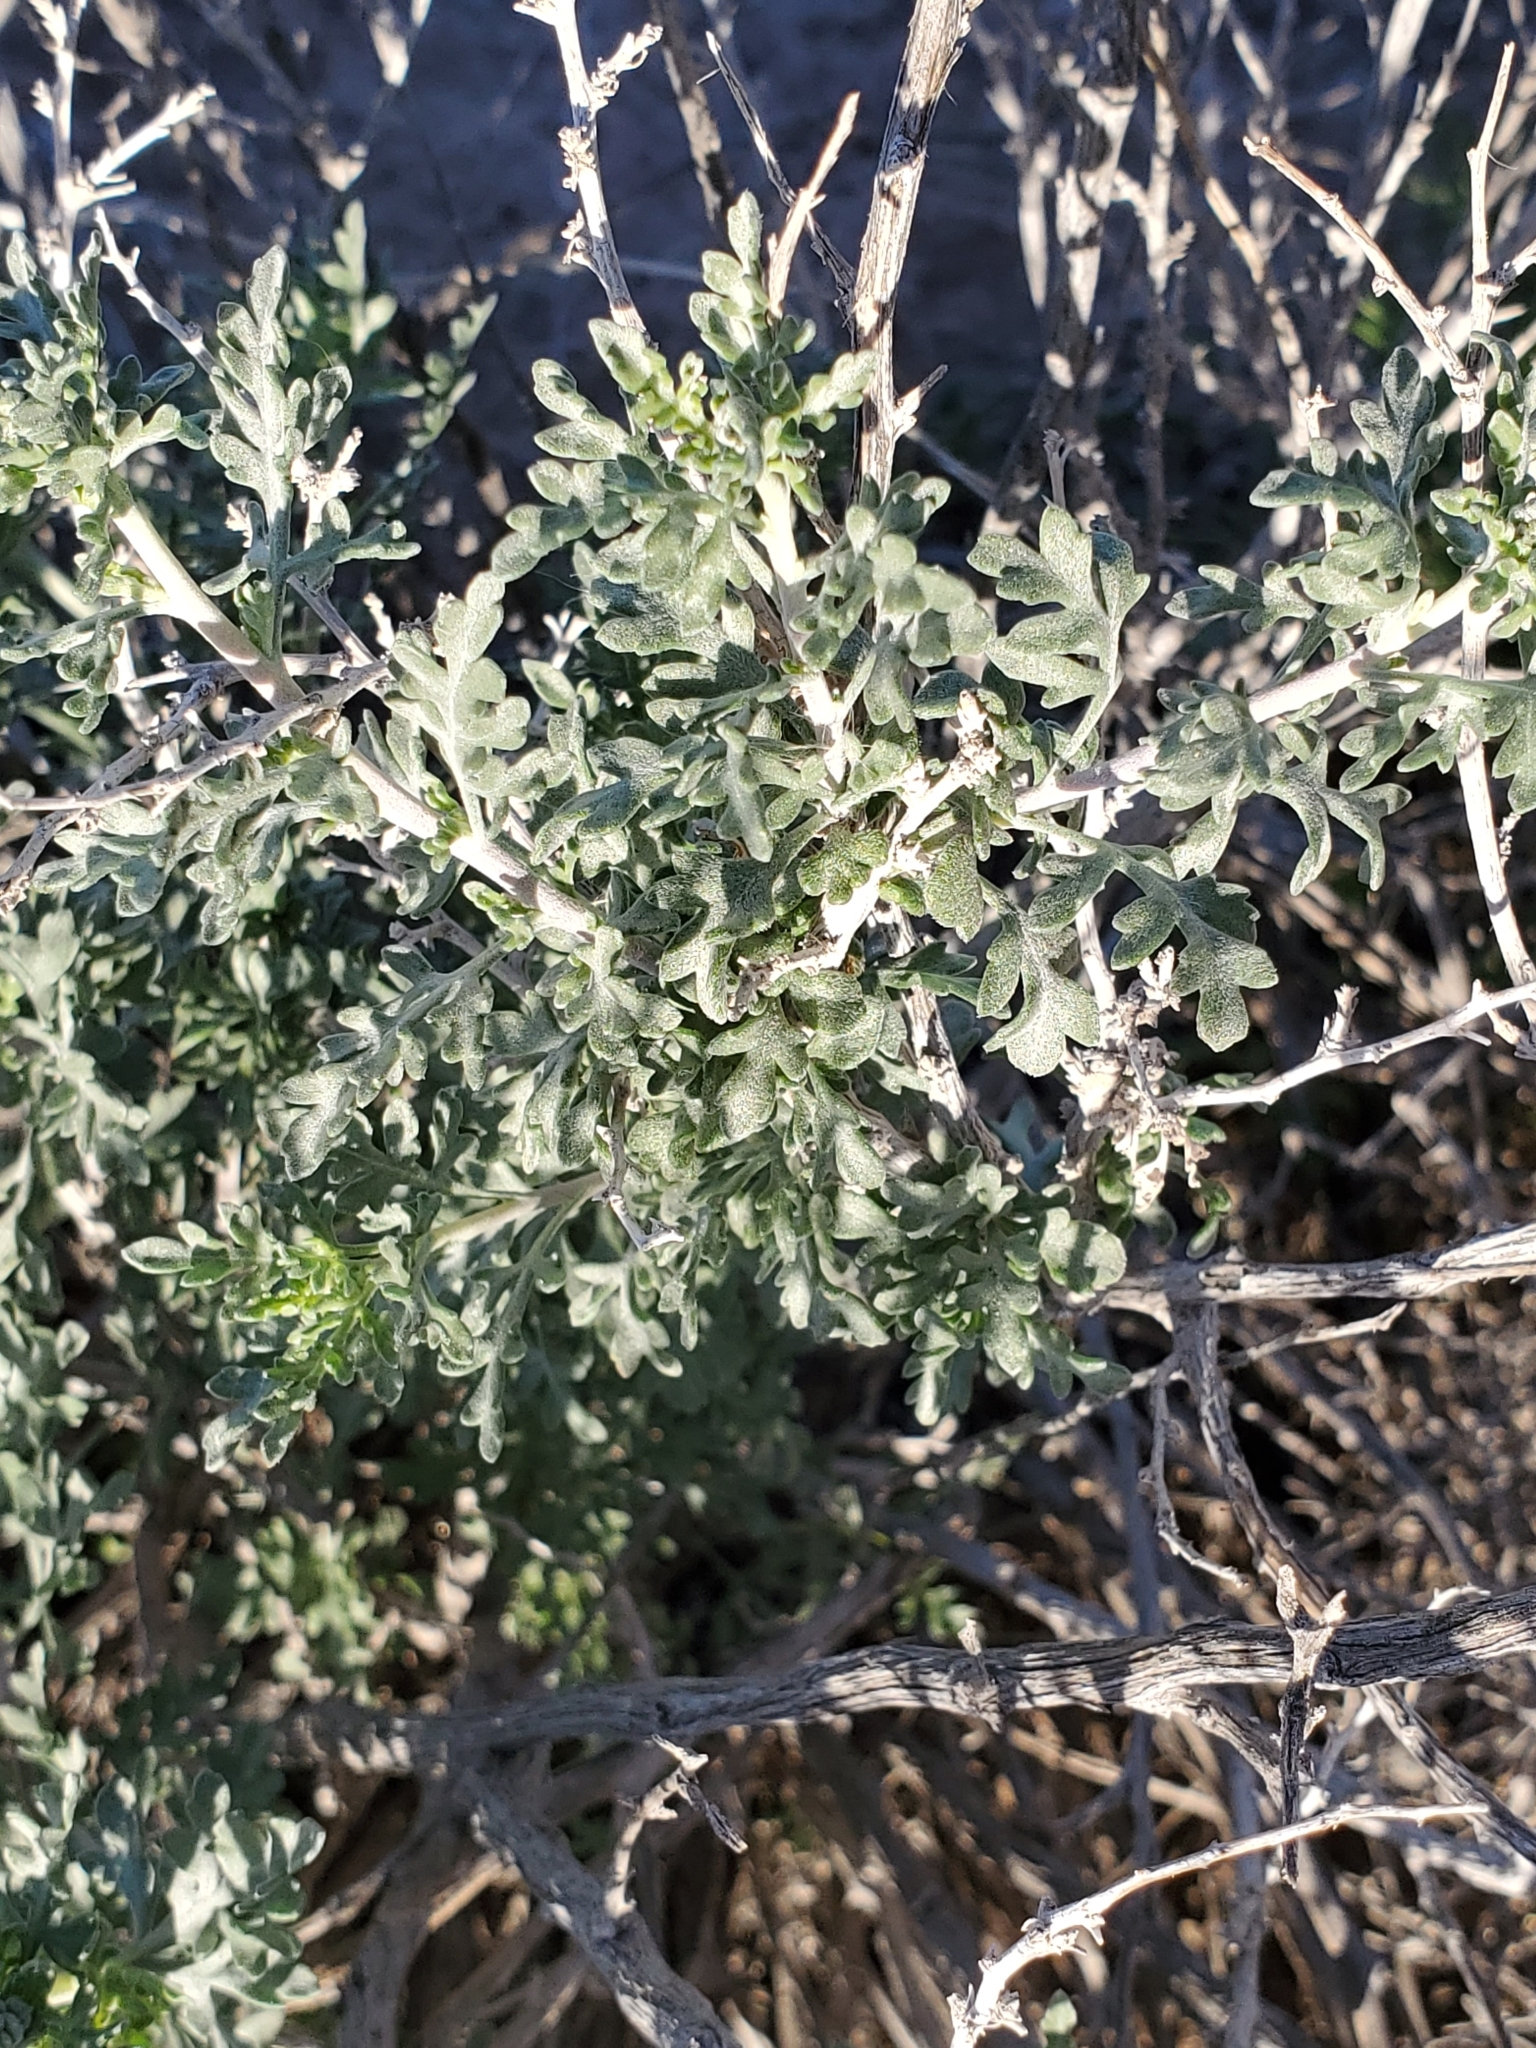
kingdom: Plantae
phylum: Tracheophyta
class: Magnoliopsida
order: Asterales
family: Asteraceae
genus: Ambrosia
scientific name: Ambrosia dumosa
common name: Bur-sage
